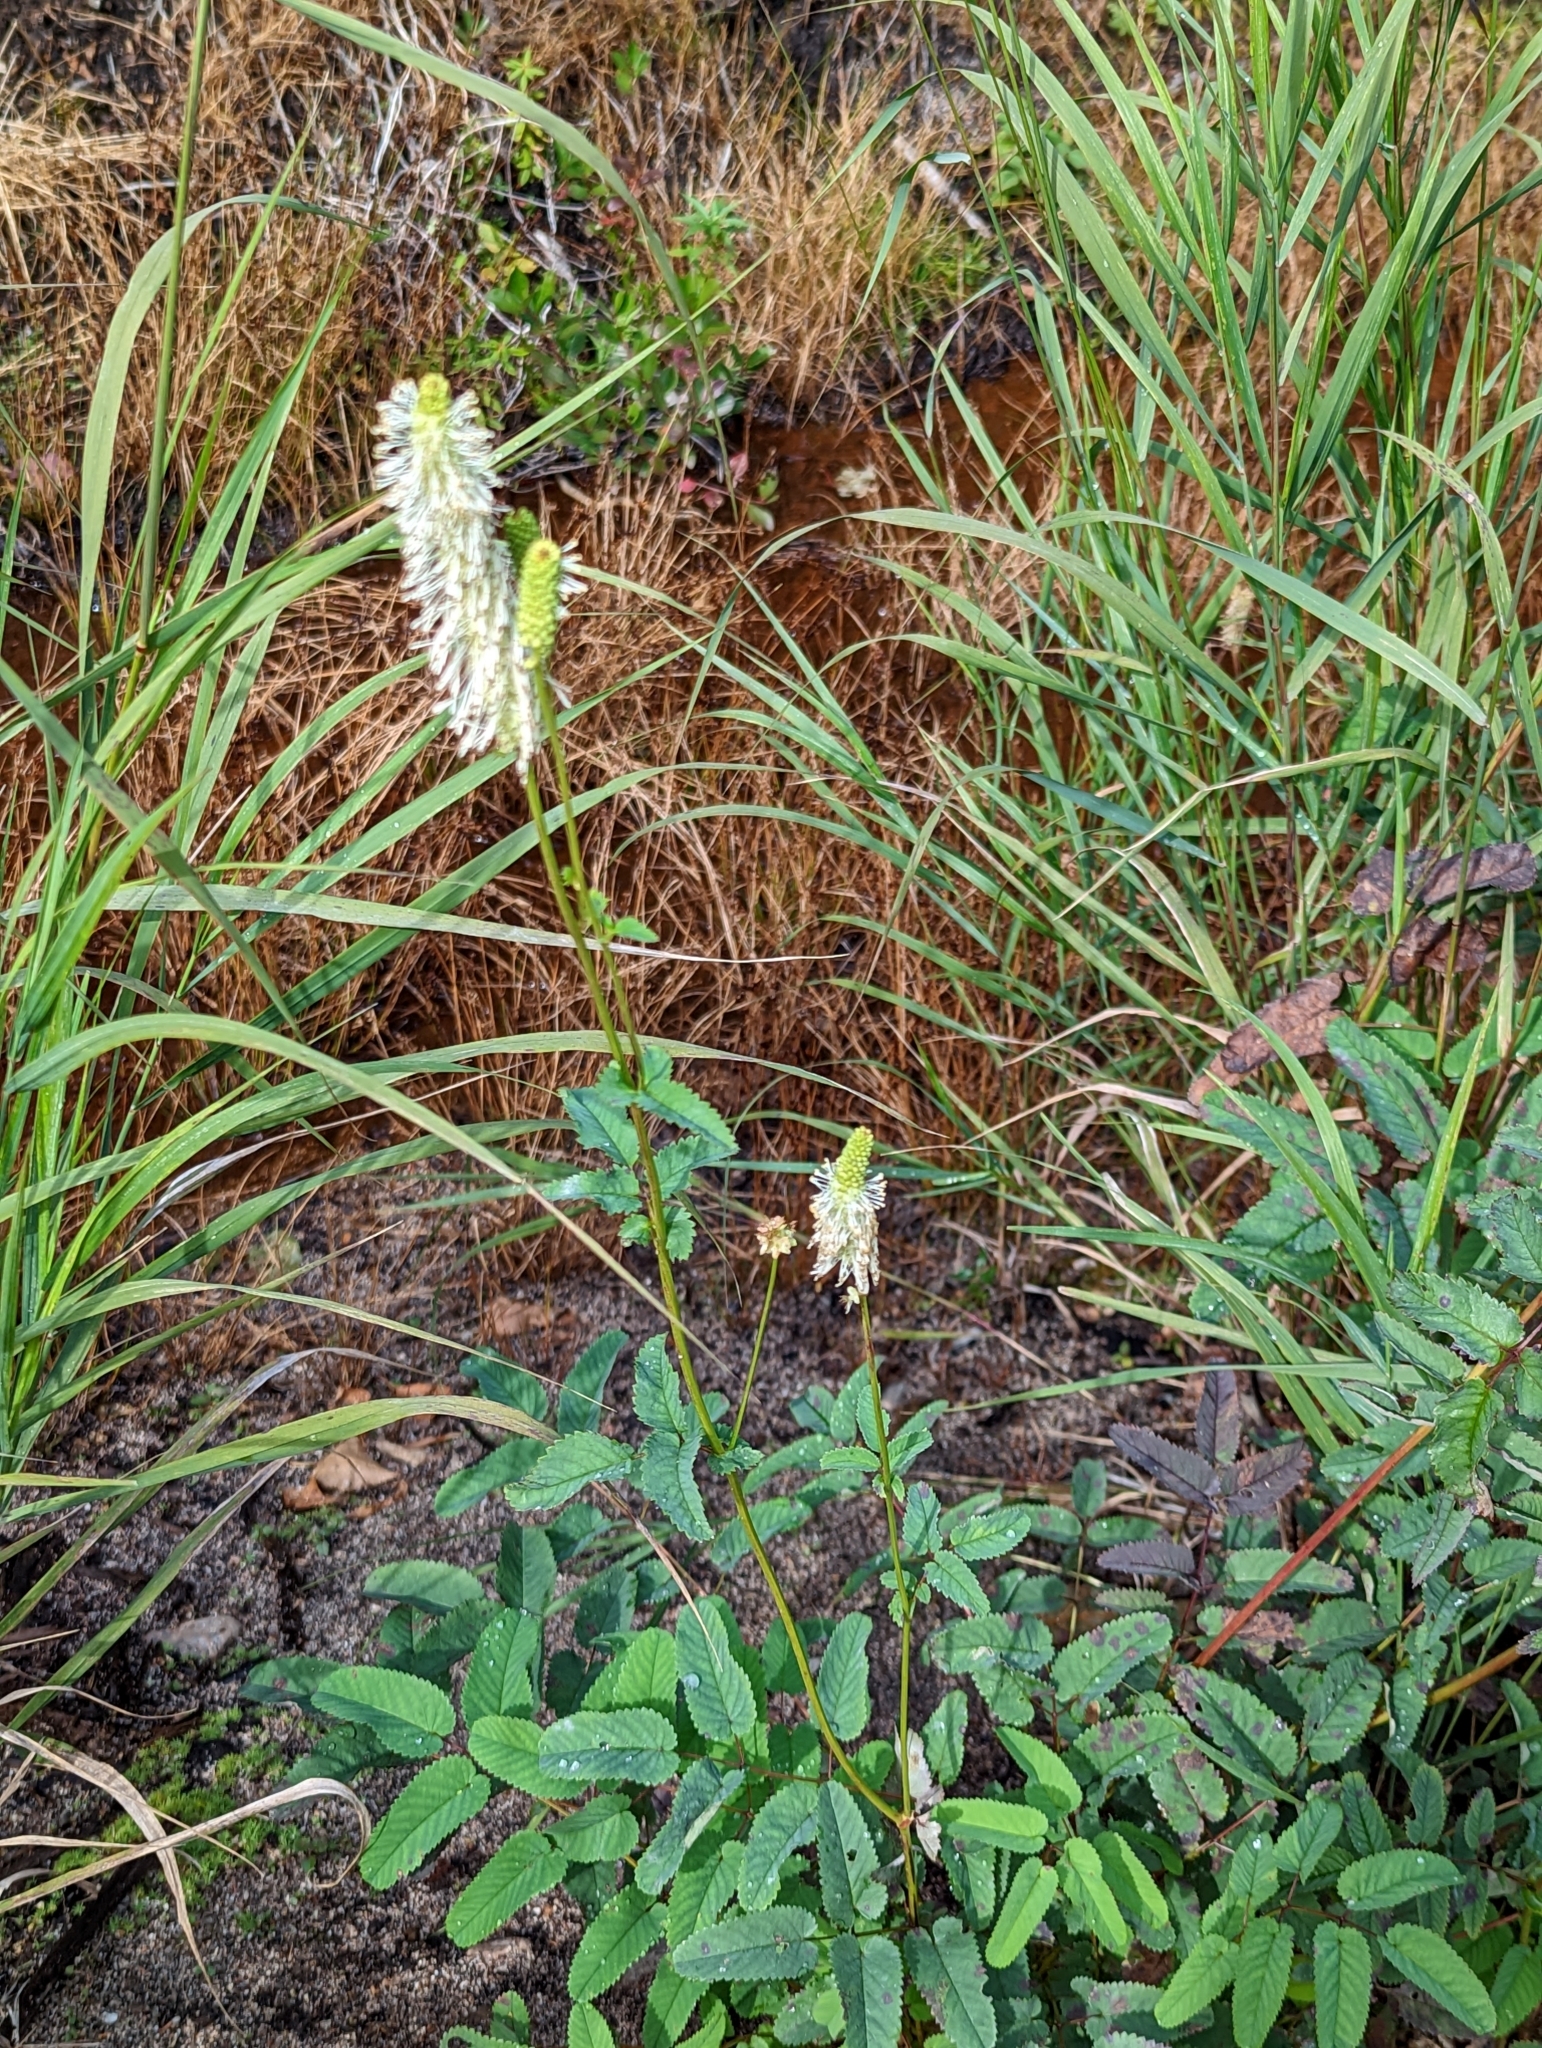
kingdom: Plantae
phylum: Tracheophyta
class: Magnoliopsida
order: Rosales
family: Rosaceae
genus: Sanguisorba
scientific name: Sanguisorba canadensis
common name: White burnet
